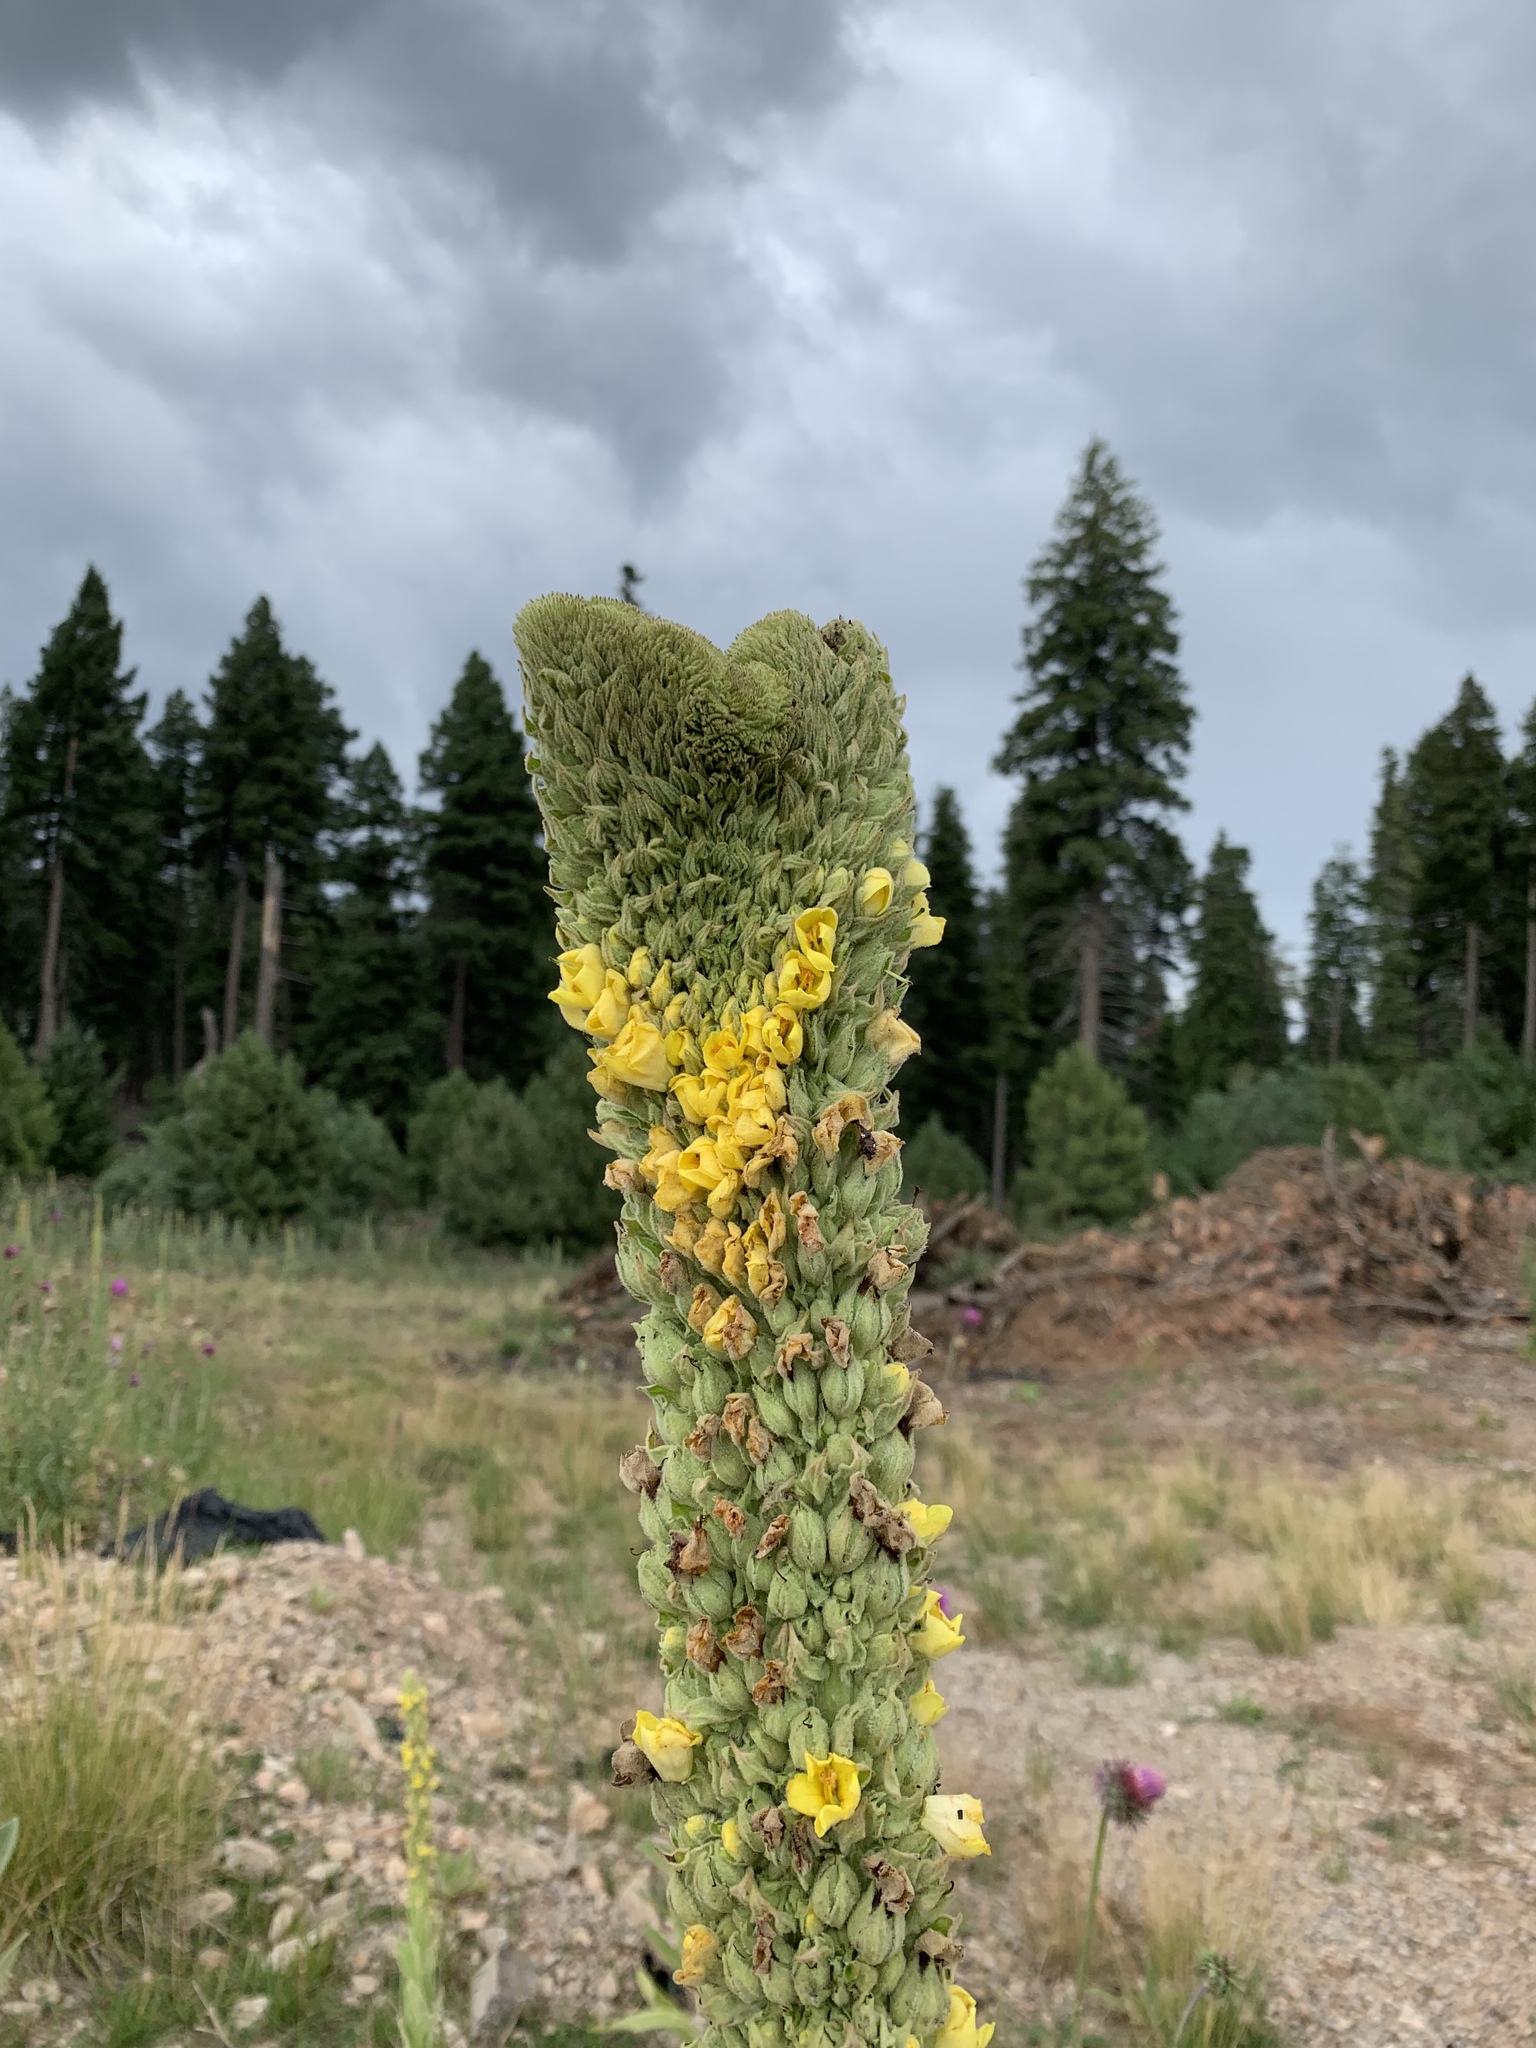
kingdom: Plantae
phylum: Tracheophyta
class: Magnoliopsida
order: Lamiales
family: Scrophulariaceae
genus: Verbascum
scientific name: Verbascum thapsus
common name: Common mullein
